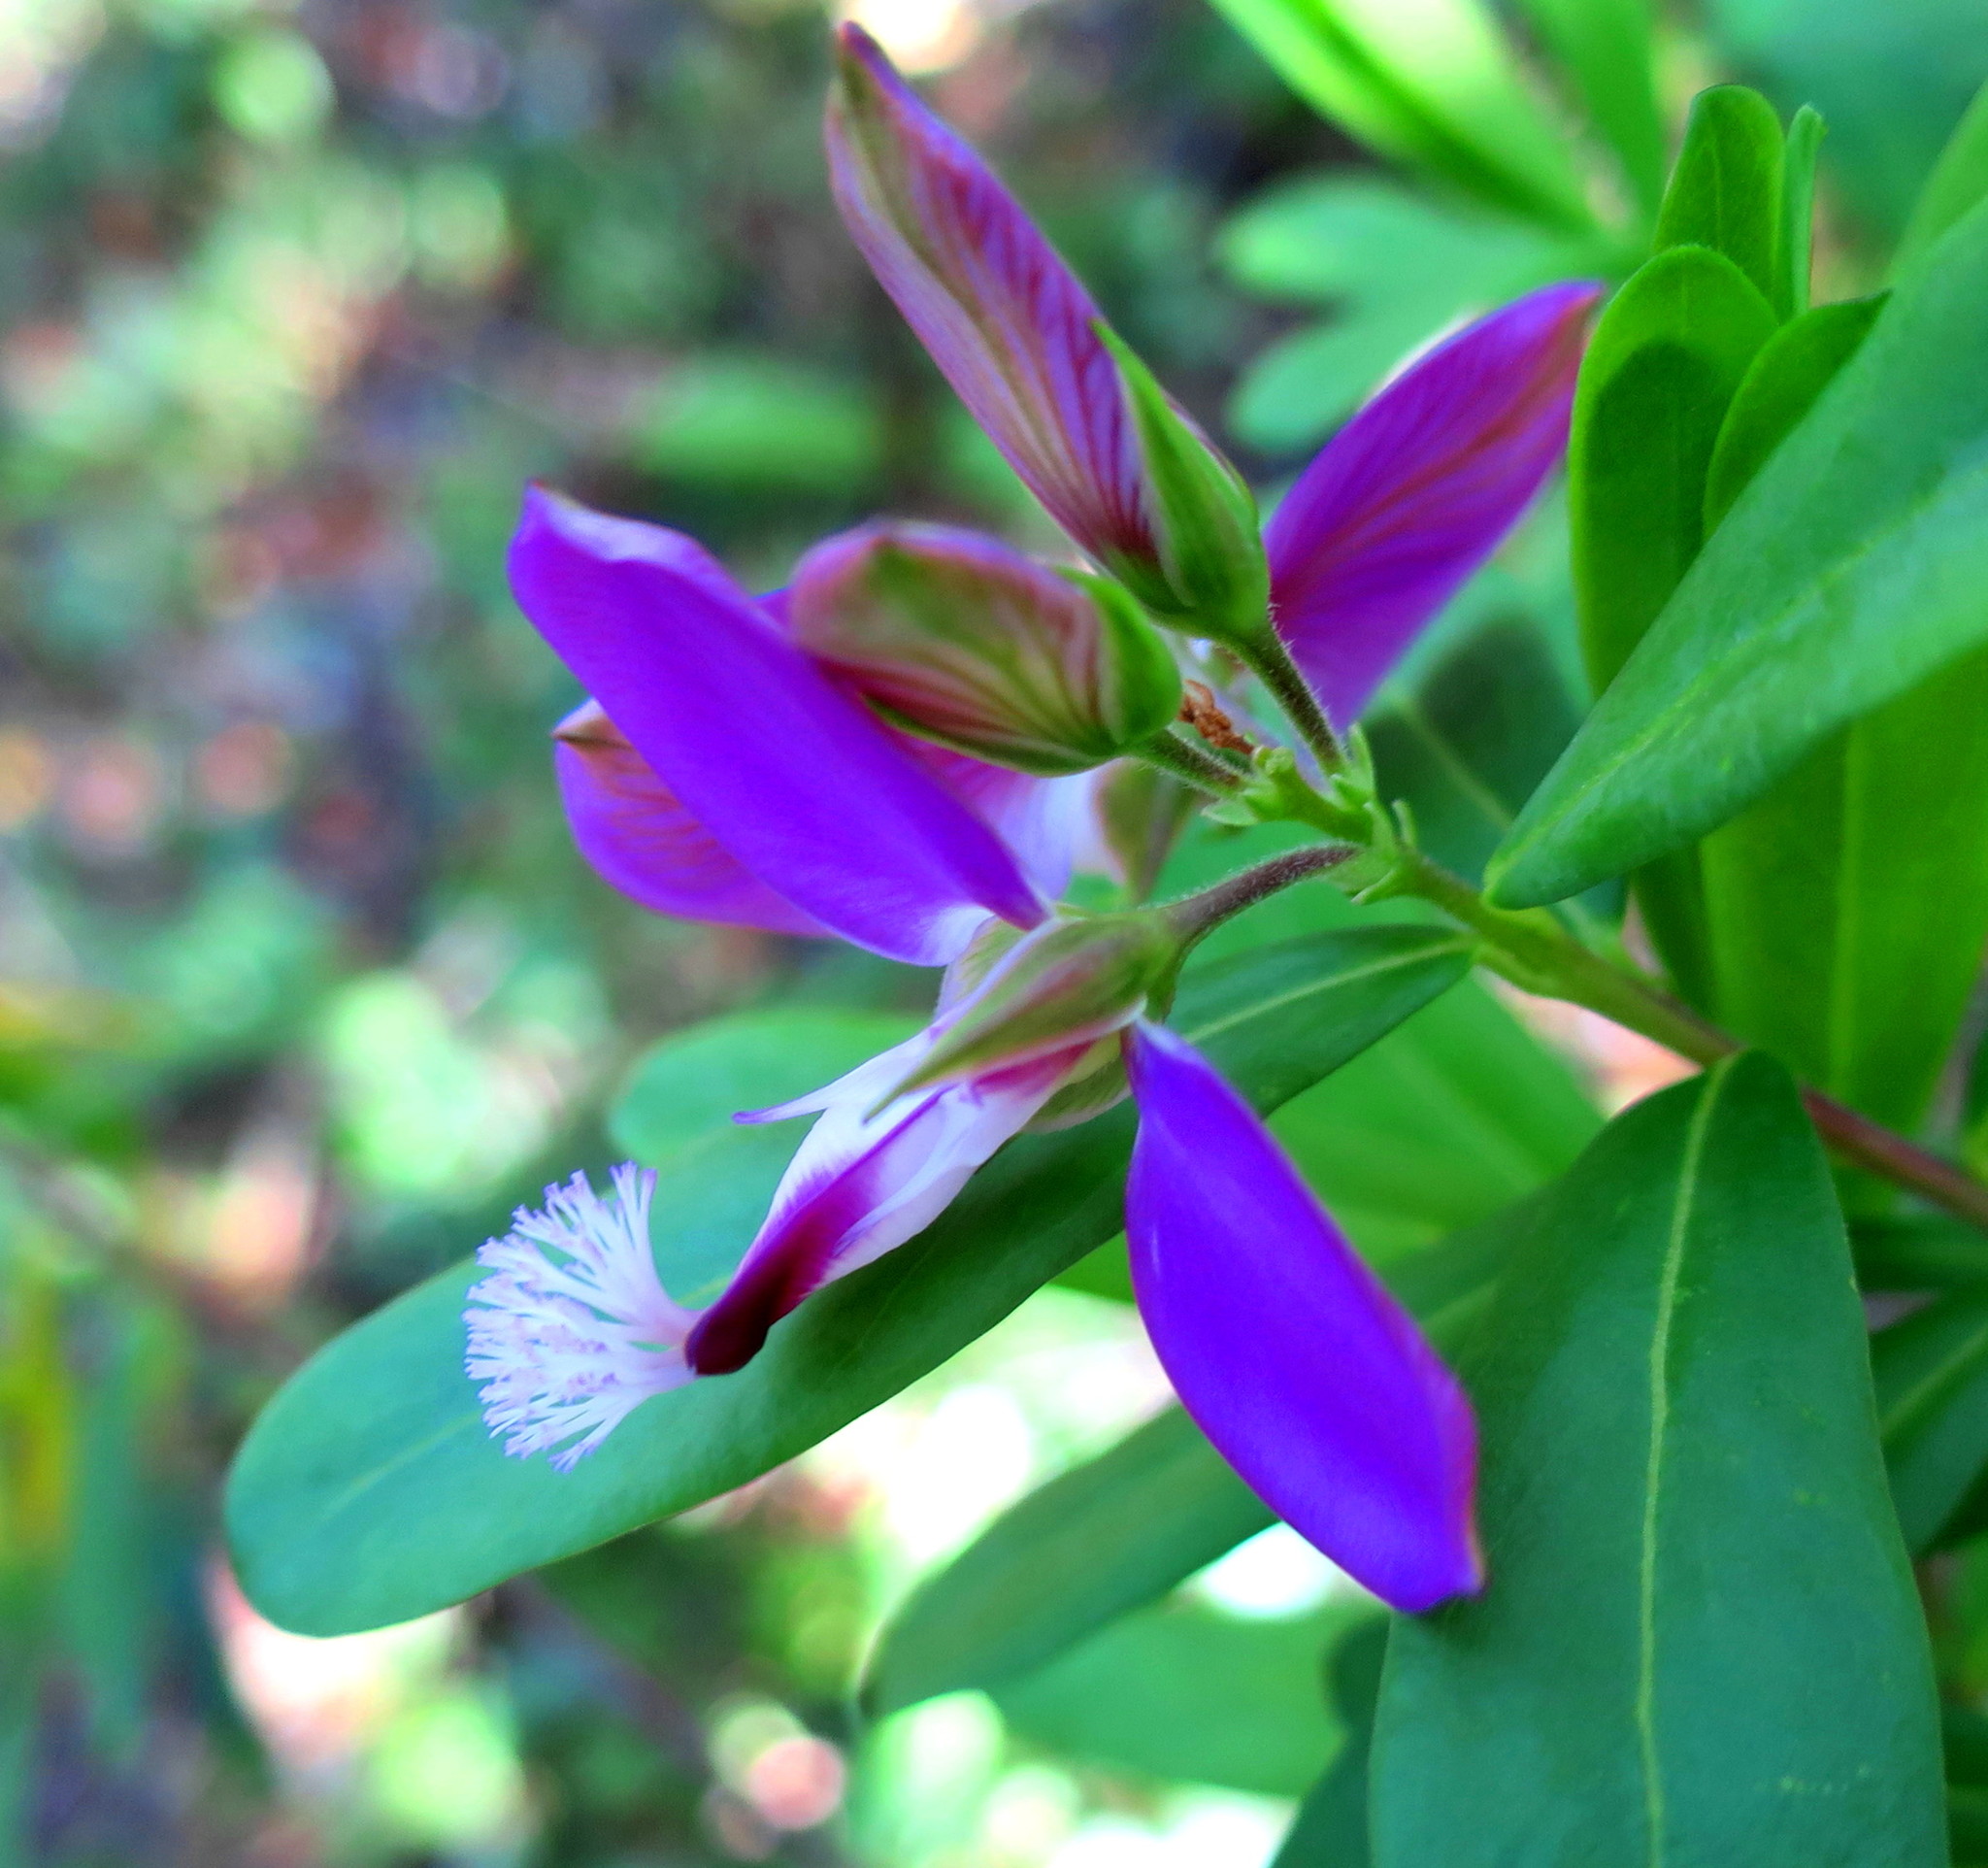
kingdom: Plantae
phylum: Tracheophyta
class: Magnoliopsida
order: Fabales
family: Polygalaceae
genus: Polygala
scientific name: Polygala myrtifolia
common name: Myrtle-leaf milkwort
